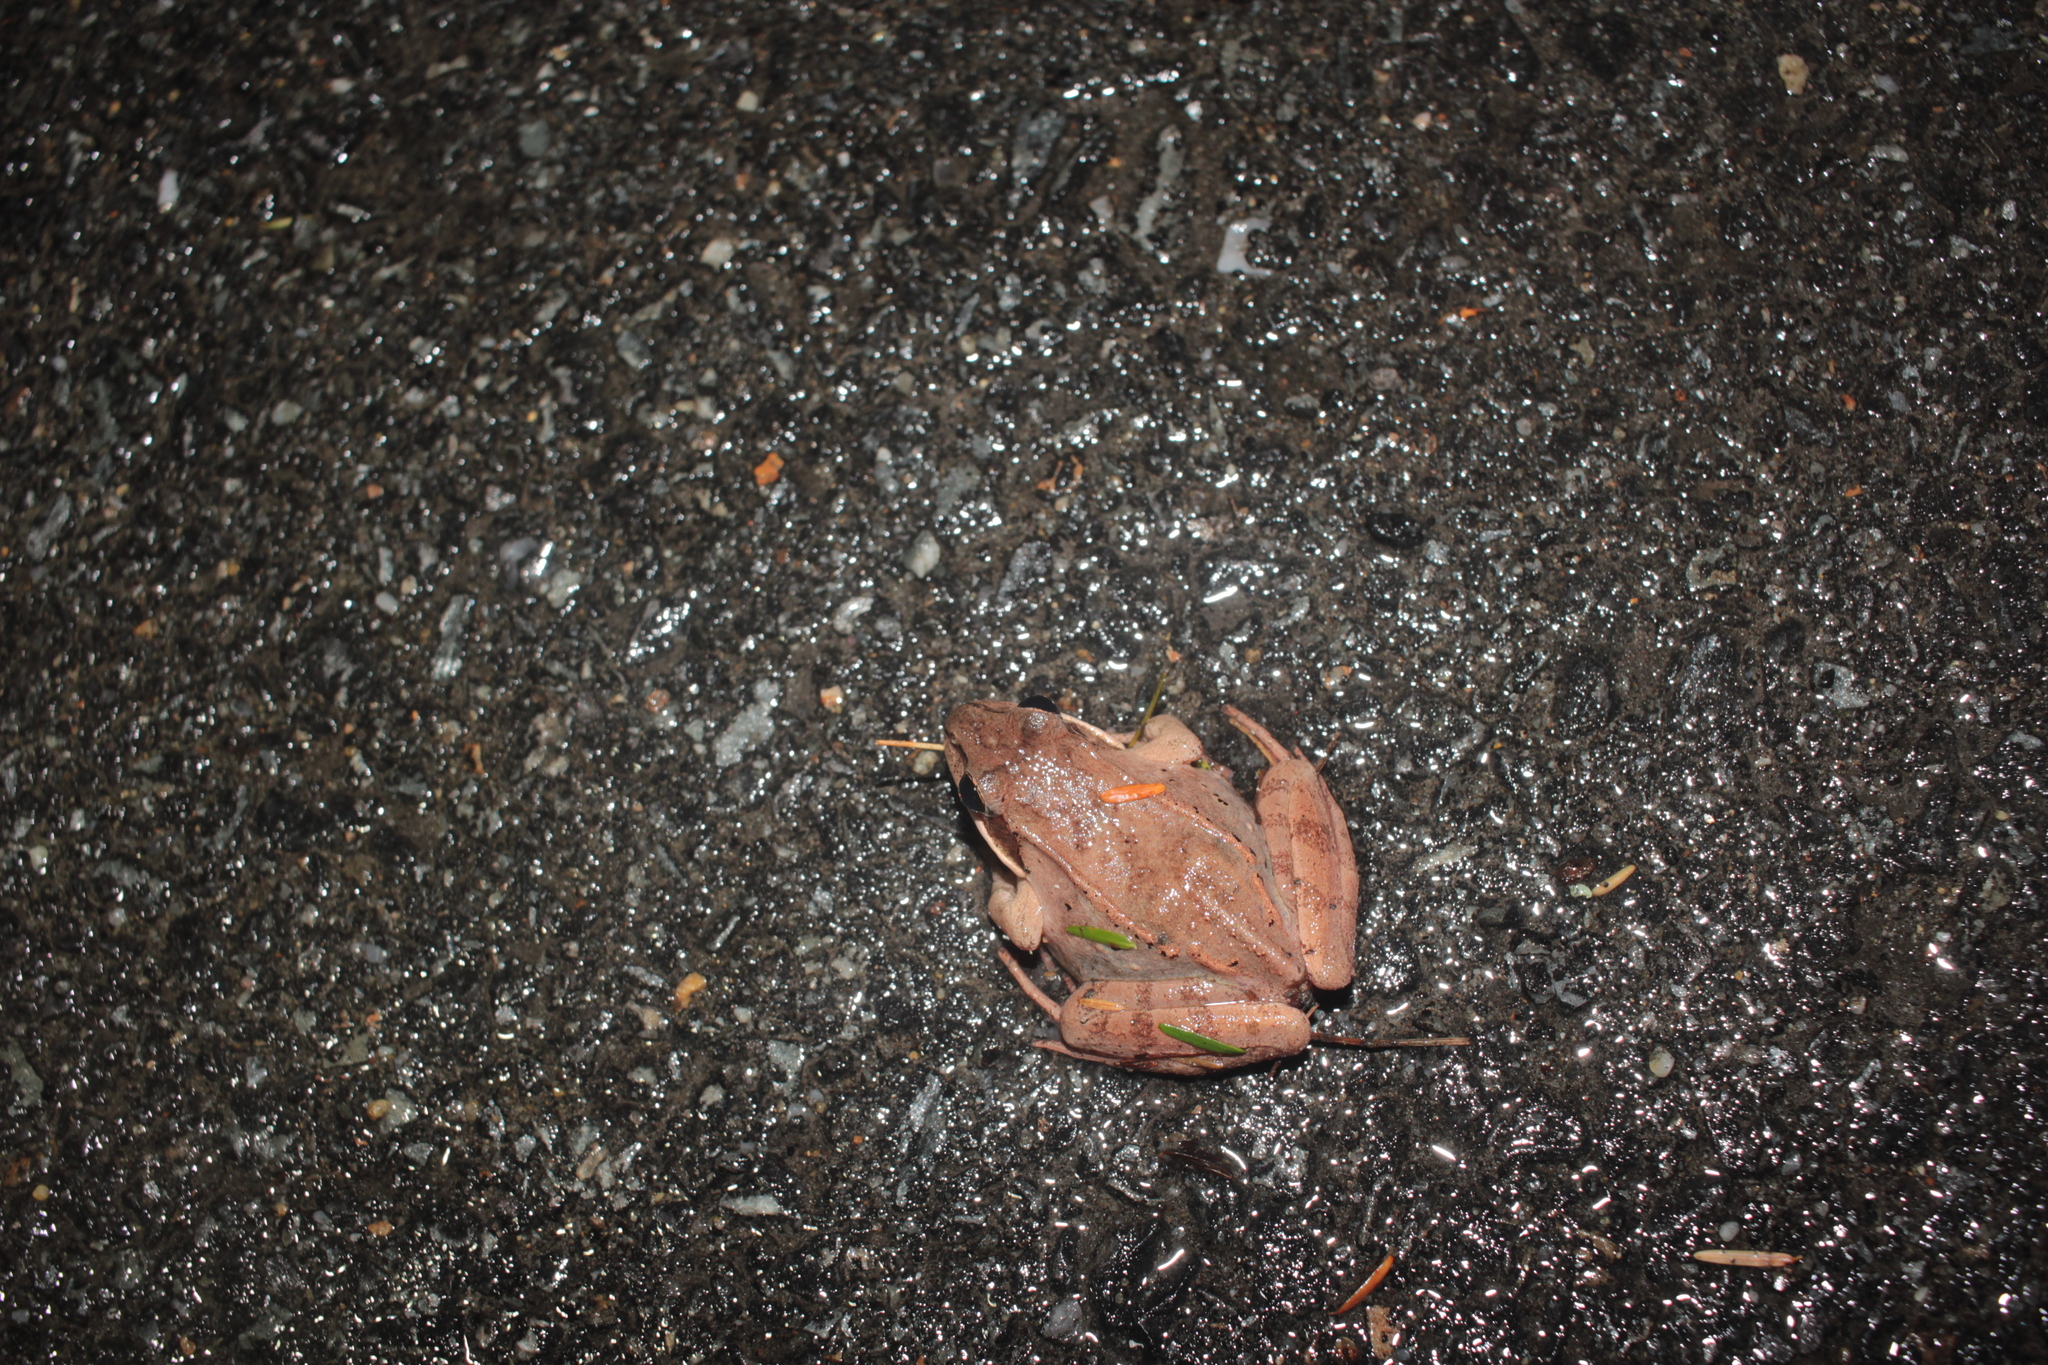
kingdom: Animalia
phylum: Chordata
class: Amphibia
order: Anura
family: Ranidae
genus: Lithobates
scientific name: Lithobates sylvaticus
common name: Wood frog
